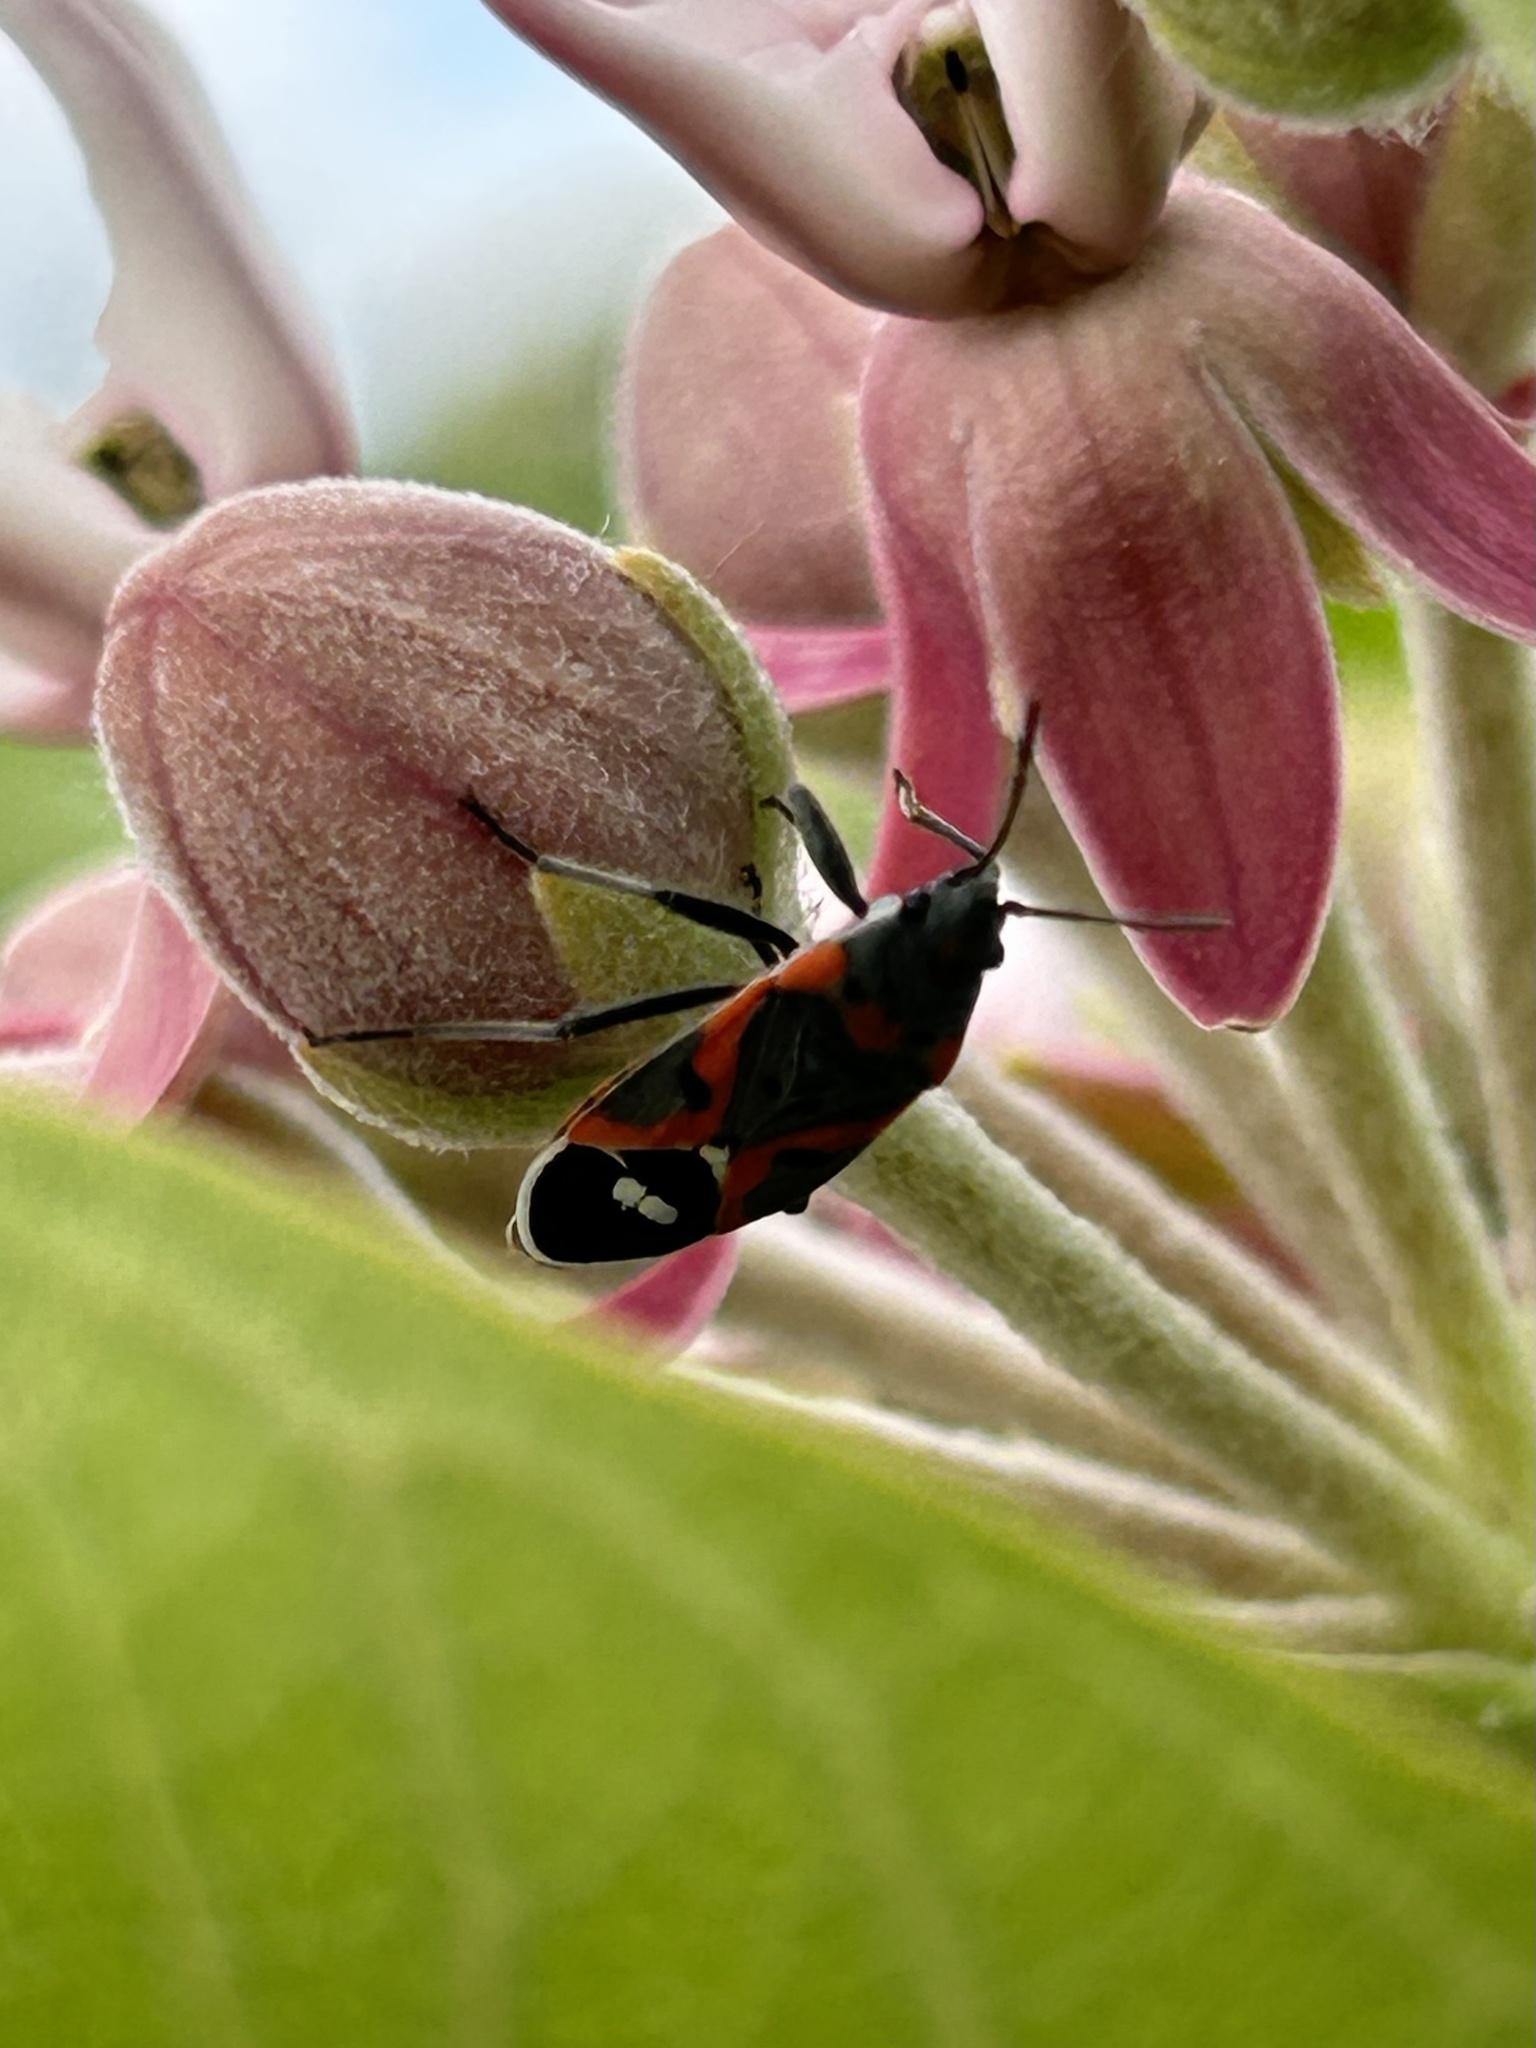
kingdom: Animalia
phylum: Arthropoda
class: Insecta
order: Hemiptera
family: Lygaeidae
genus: Lygaeus
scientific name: Lygaeus kalmii
